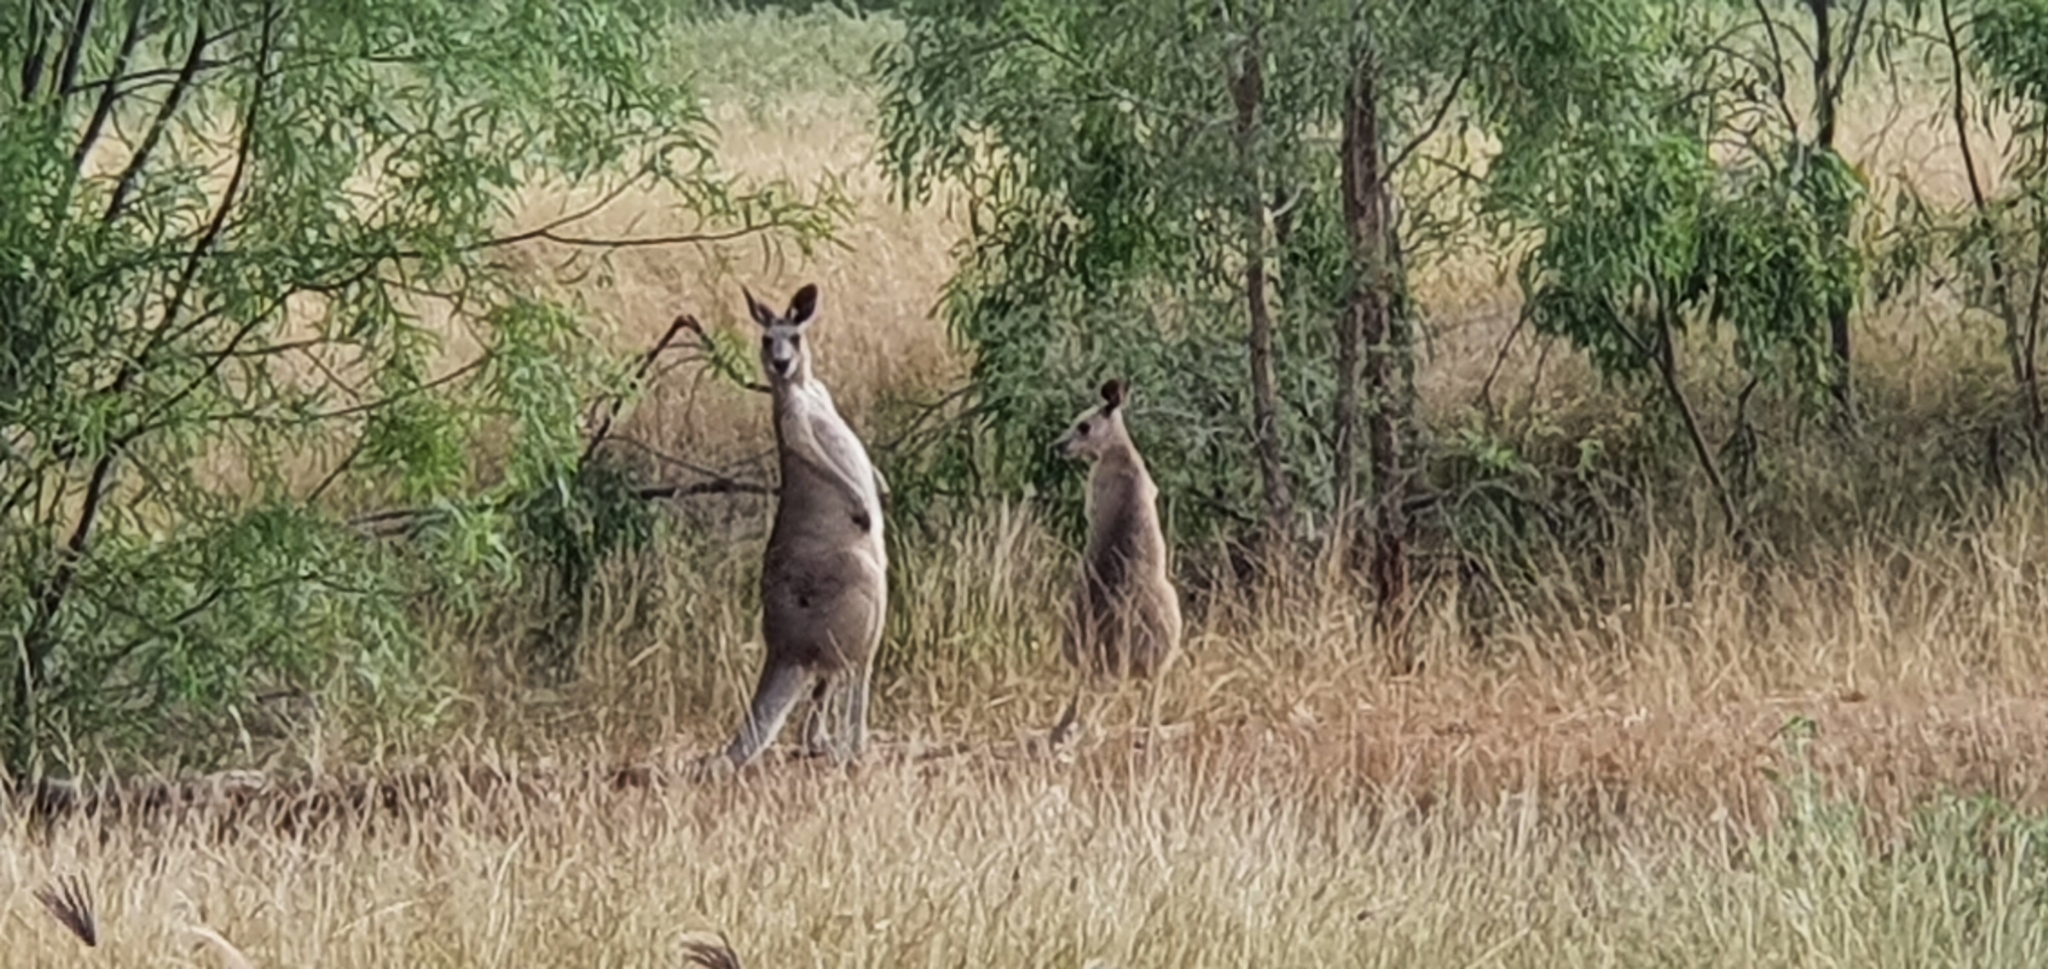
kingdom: Animalia
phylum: Chordata
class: Mammalia
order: Diprotodontia
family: Macropodidae
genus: Macropus
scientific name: Macropus giganteus
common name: Eastern grey kangaroo
